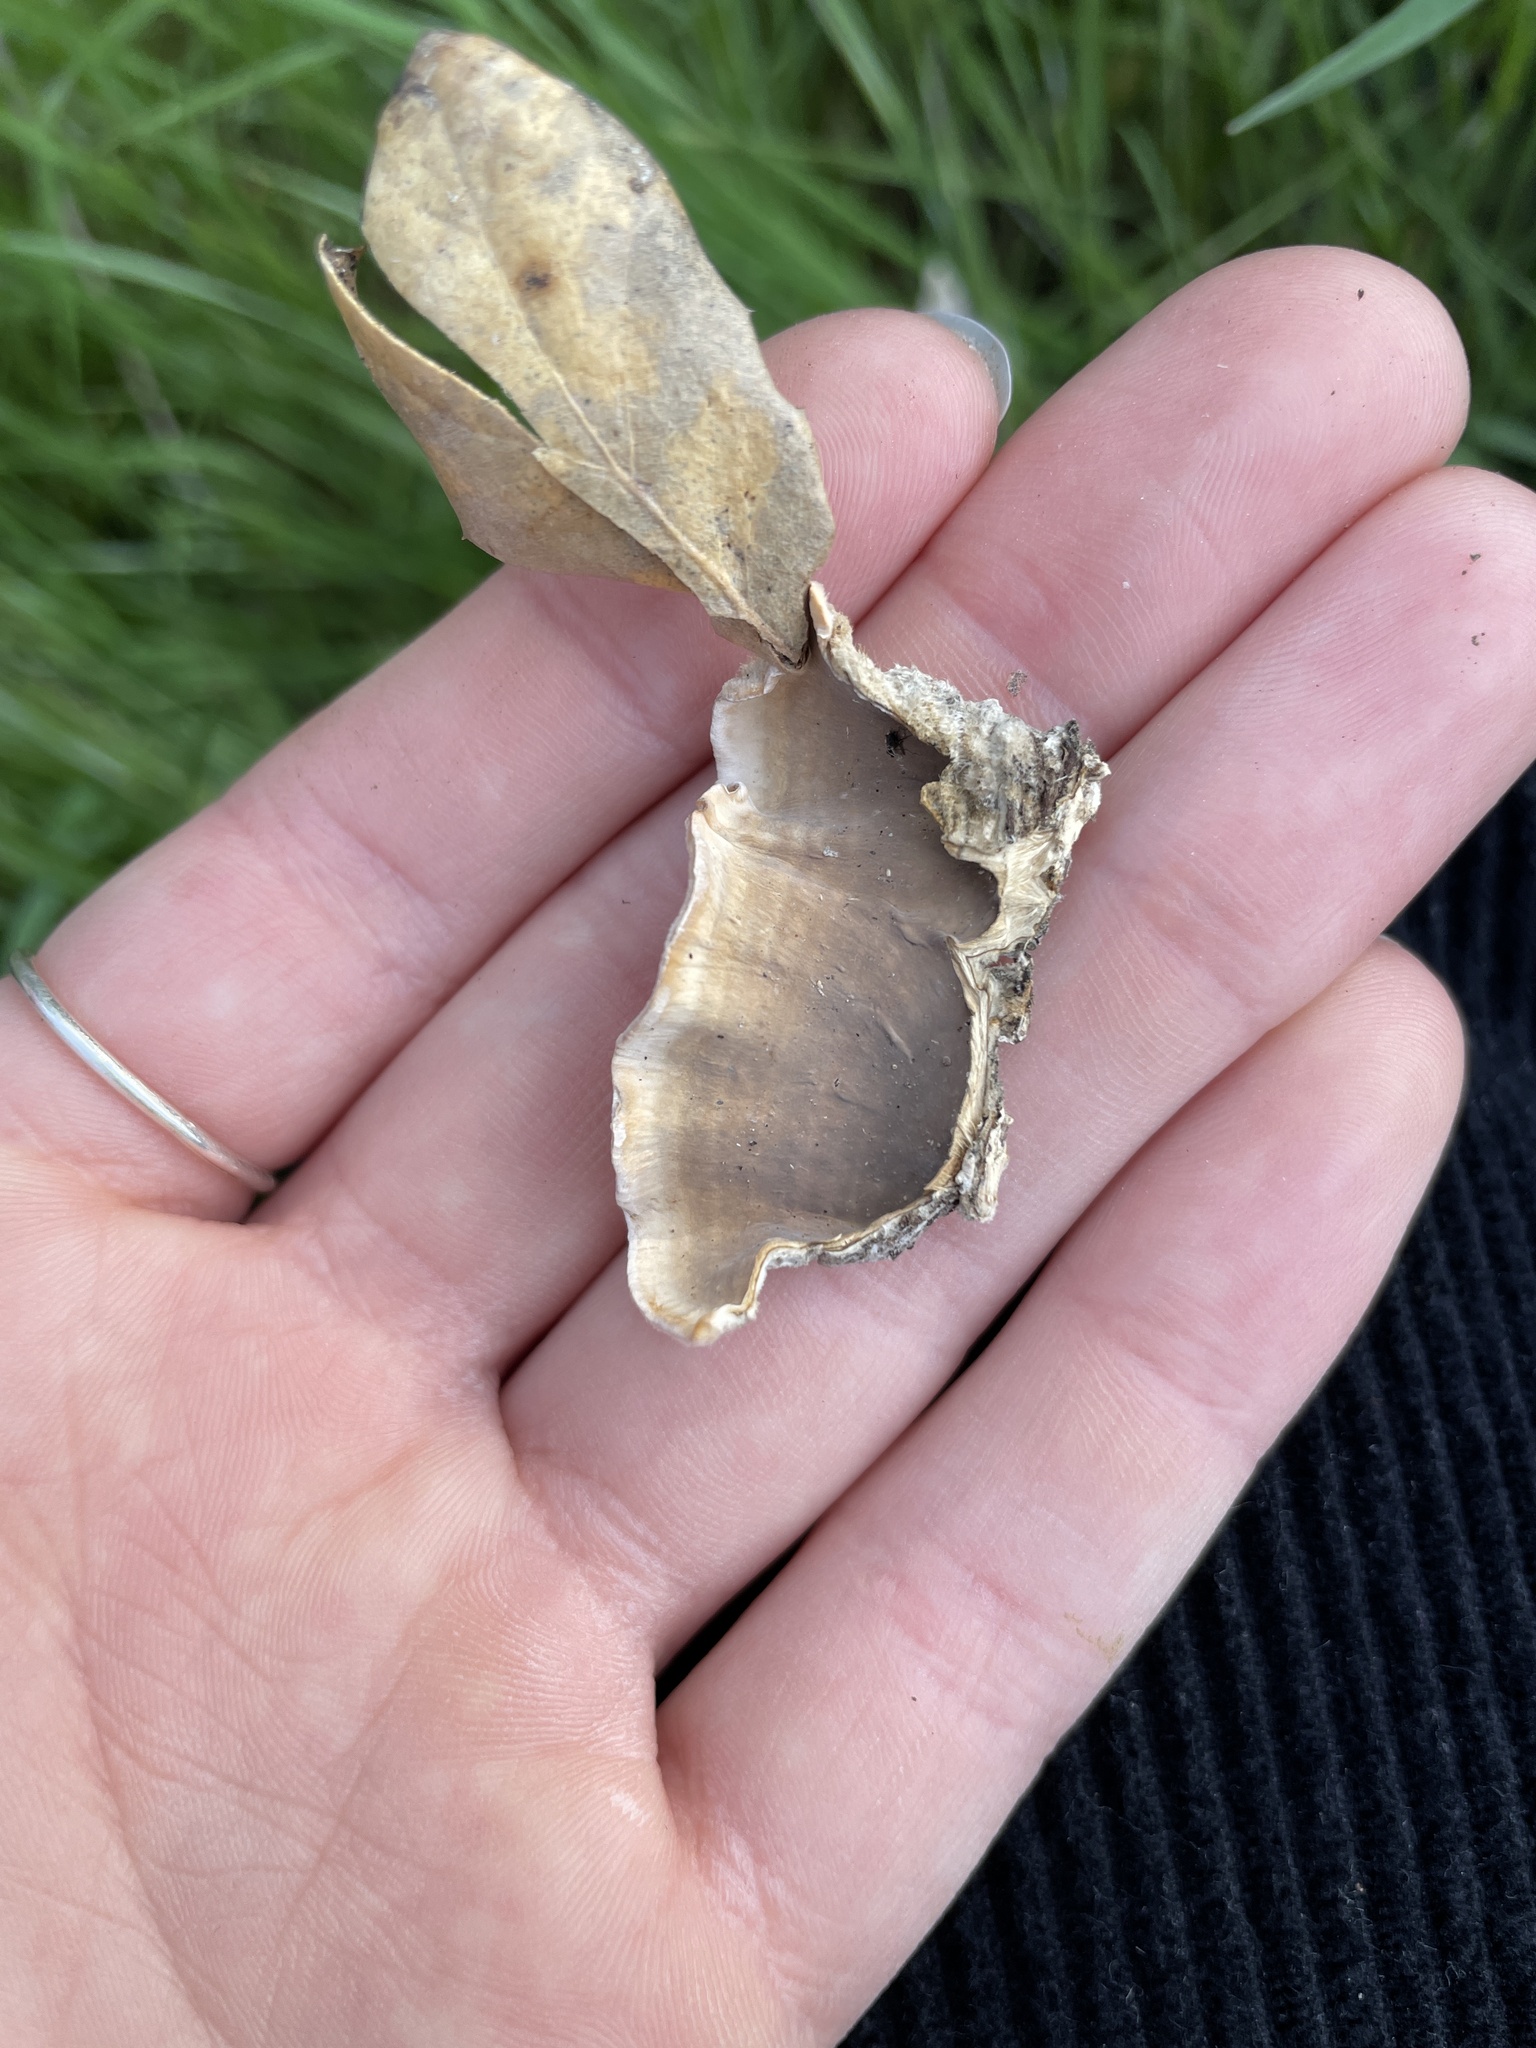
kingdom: Fungi
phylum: Basidiomycota
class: Agaricomycetes
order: Russulales
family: Stereaceae
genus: Stereum
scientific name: Stereum hirsutum
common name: Hairy curtain crust
